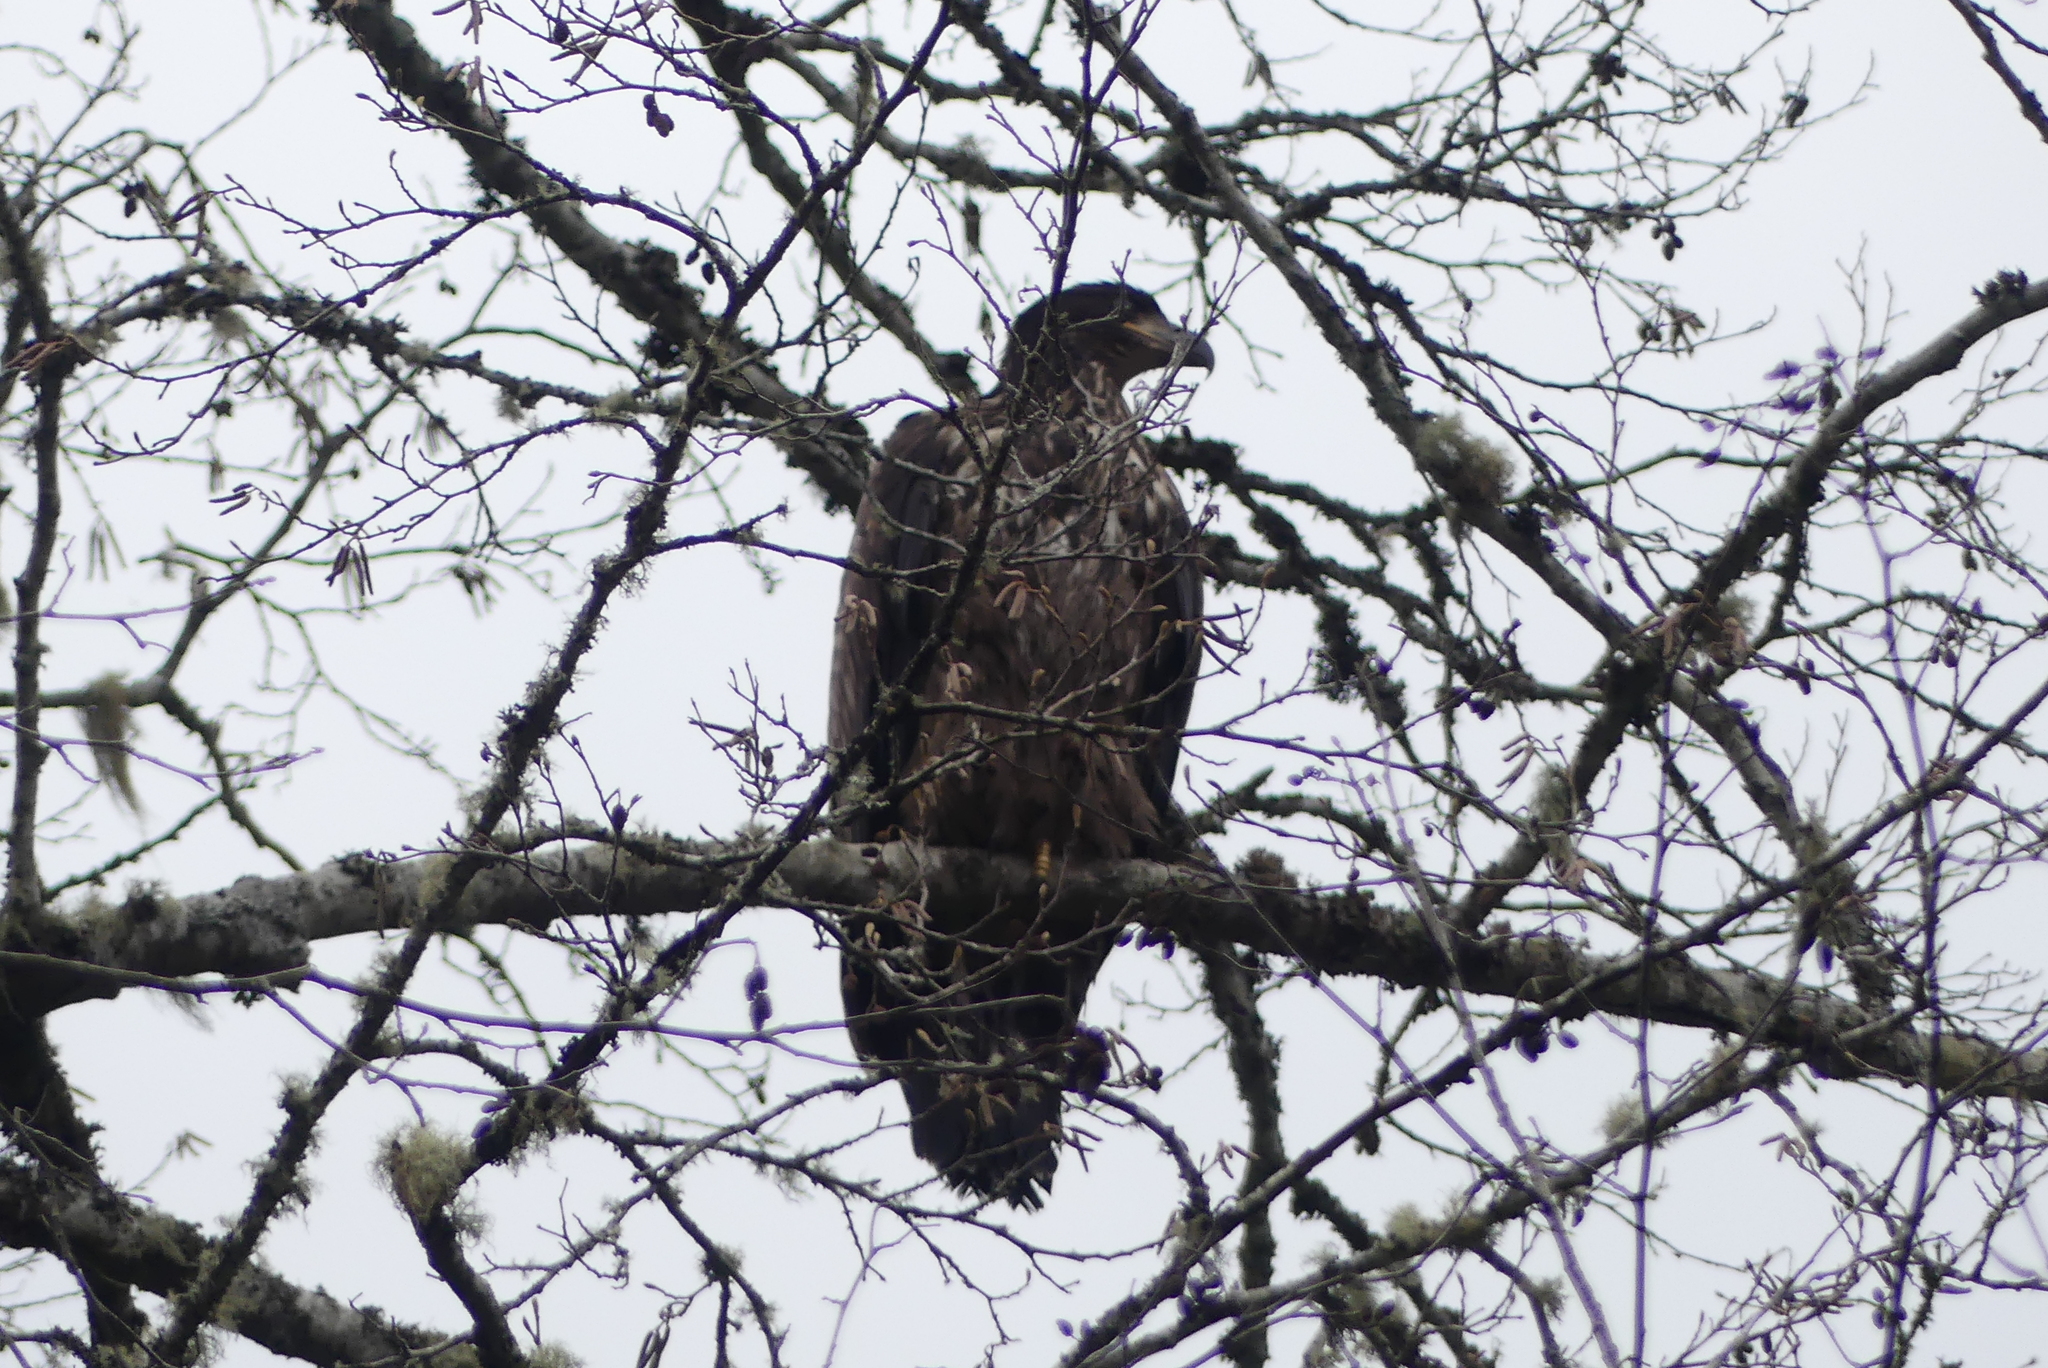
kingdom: Animalia
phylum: Chordata
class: Aves
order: Accipitriformes
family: Accipitridae
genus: Haliaeetus
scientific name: Haliaeetus leucocephalus
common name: Bald eagle
